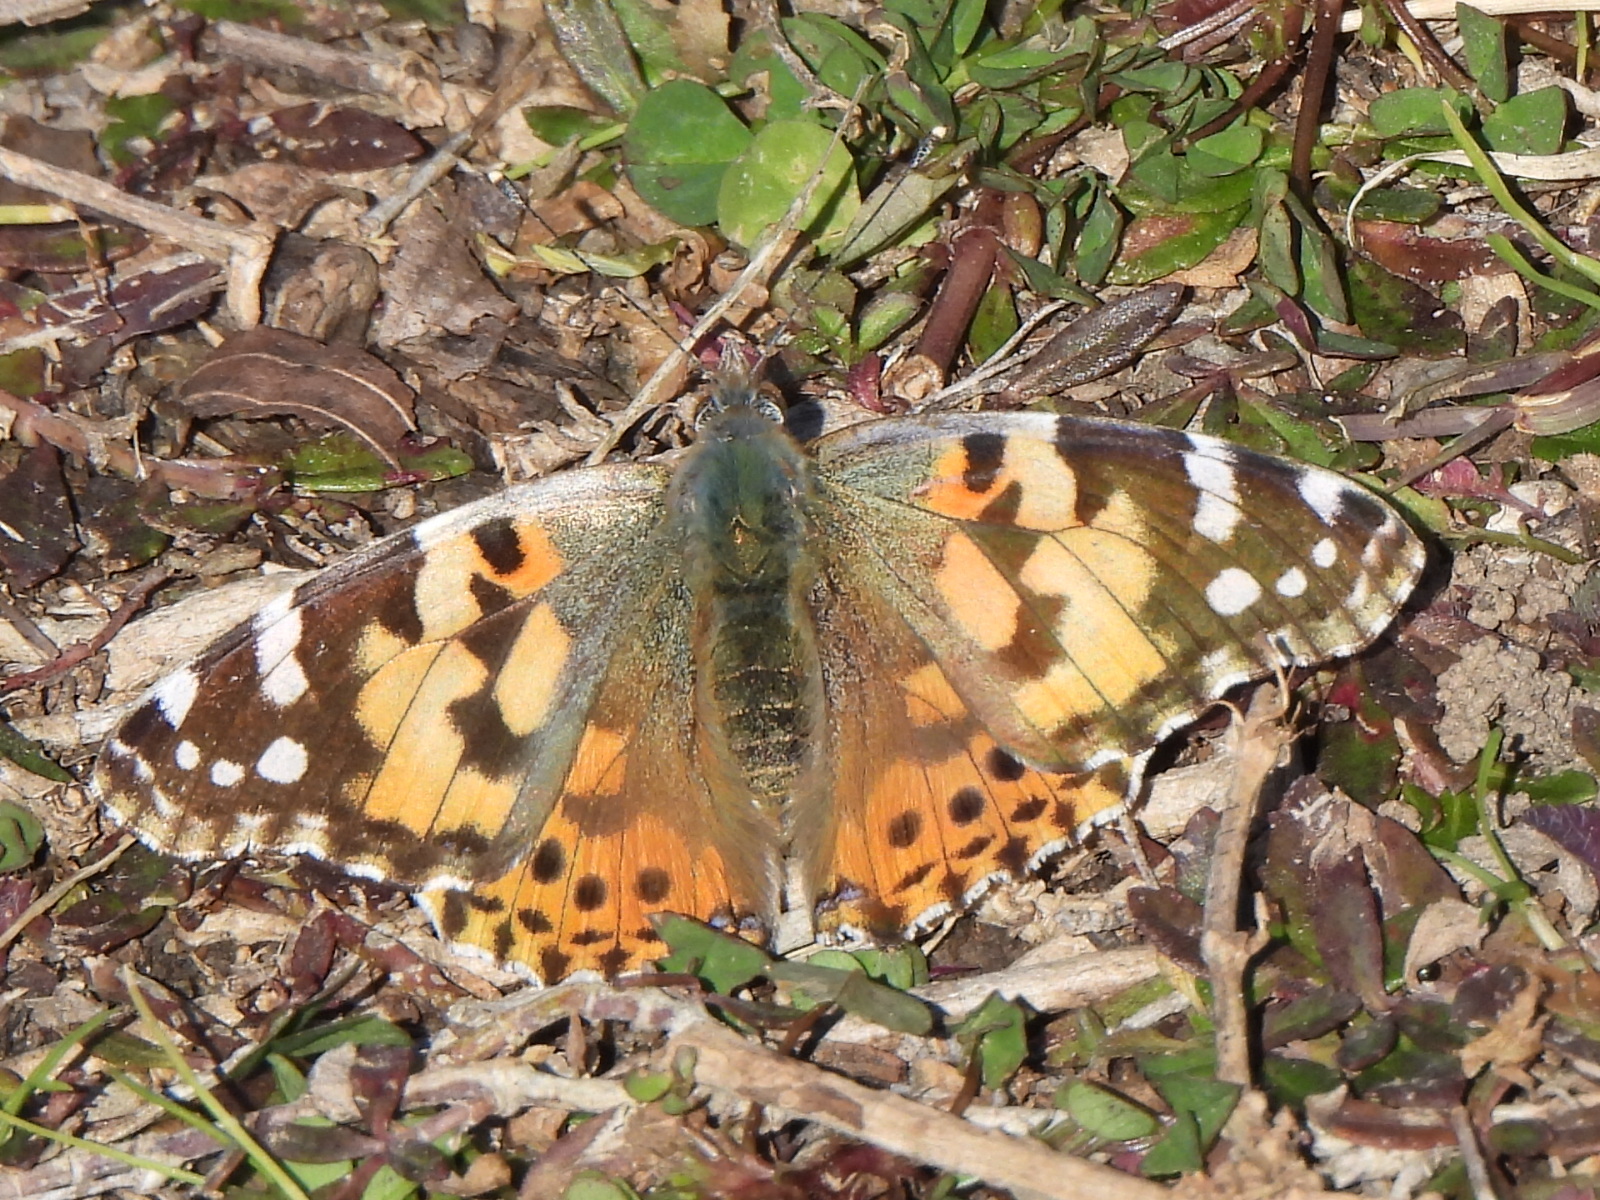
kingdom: Animalia
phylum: Arthropoda
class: Insecta
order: Lepidoptera
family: Nymphalidae
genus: Vanessa
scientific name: Vanessa cardui
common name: Painted lady
